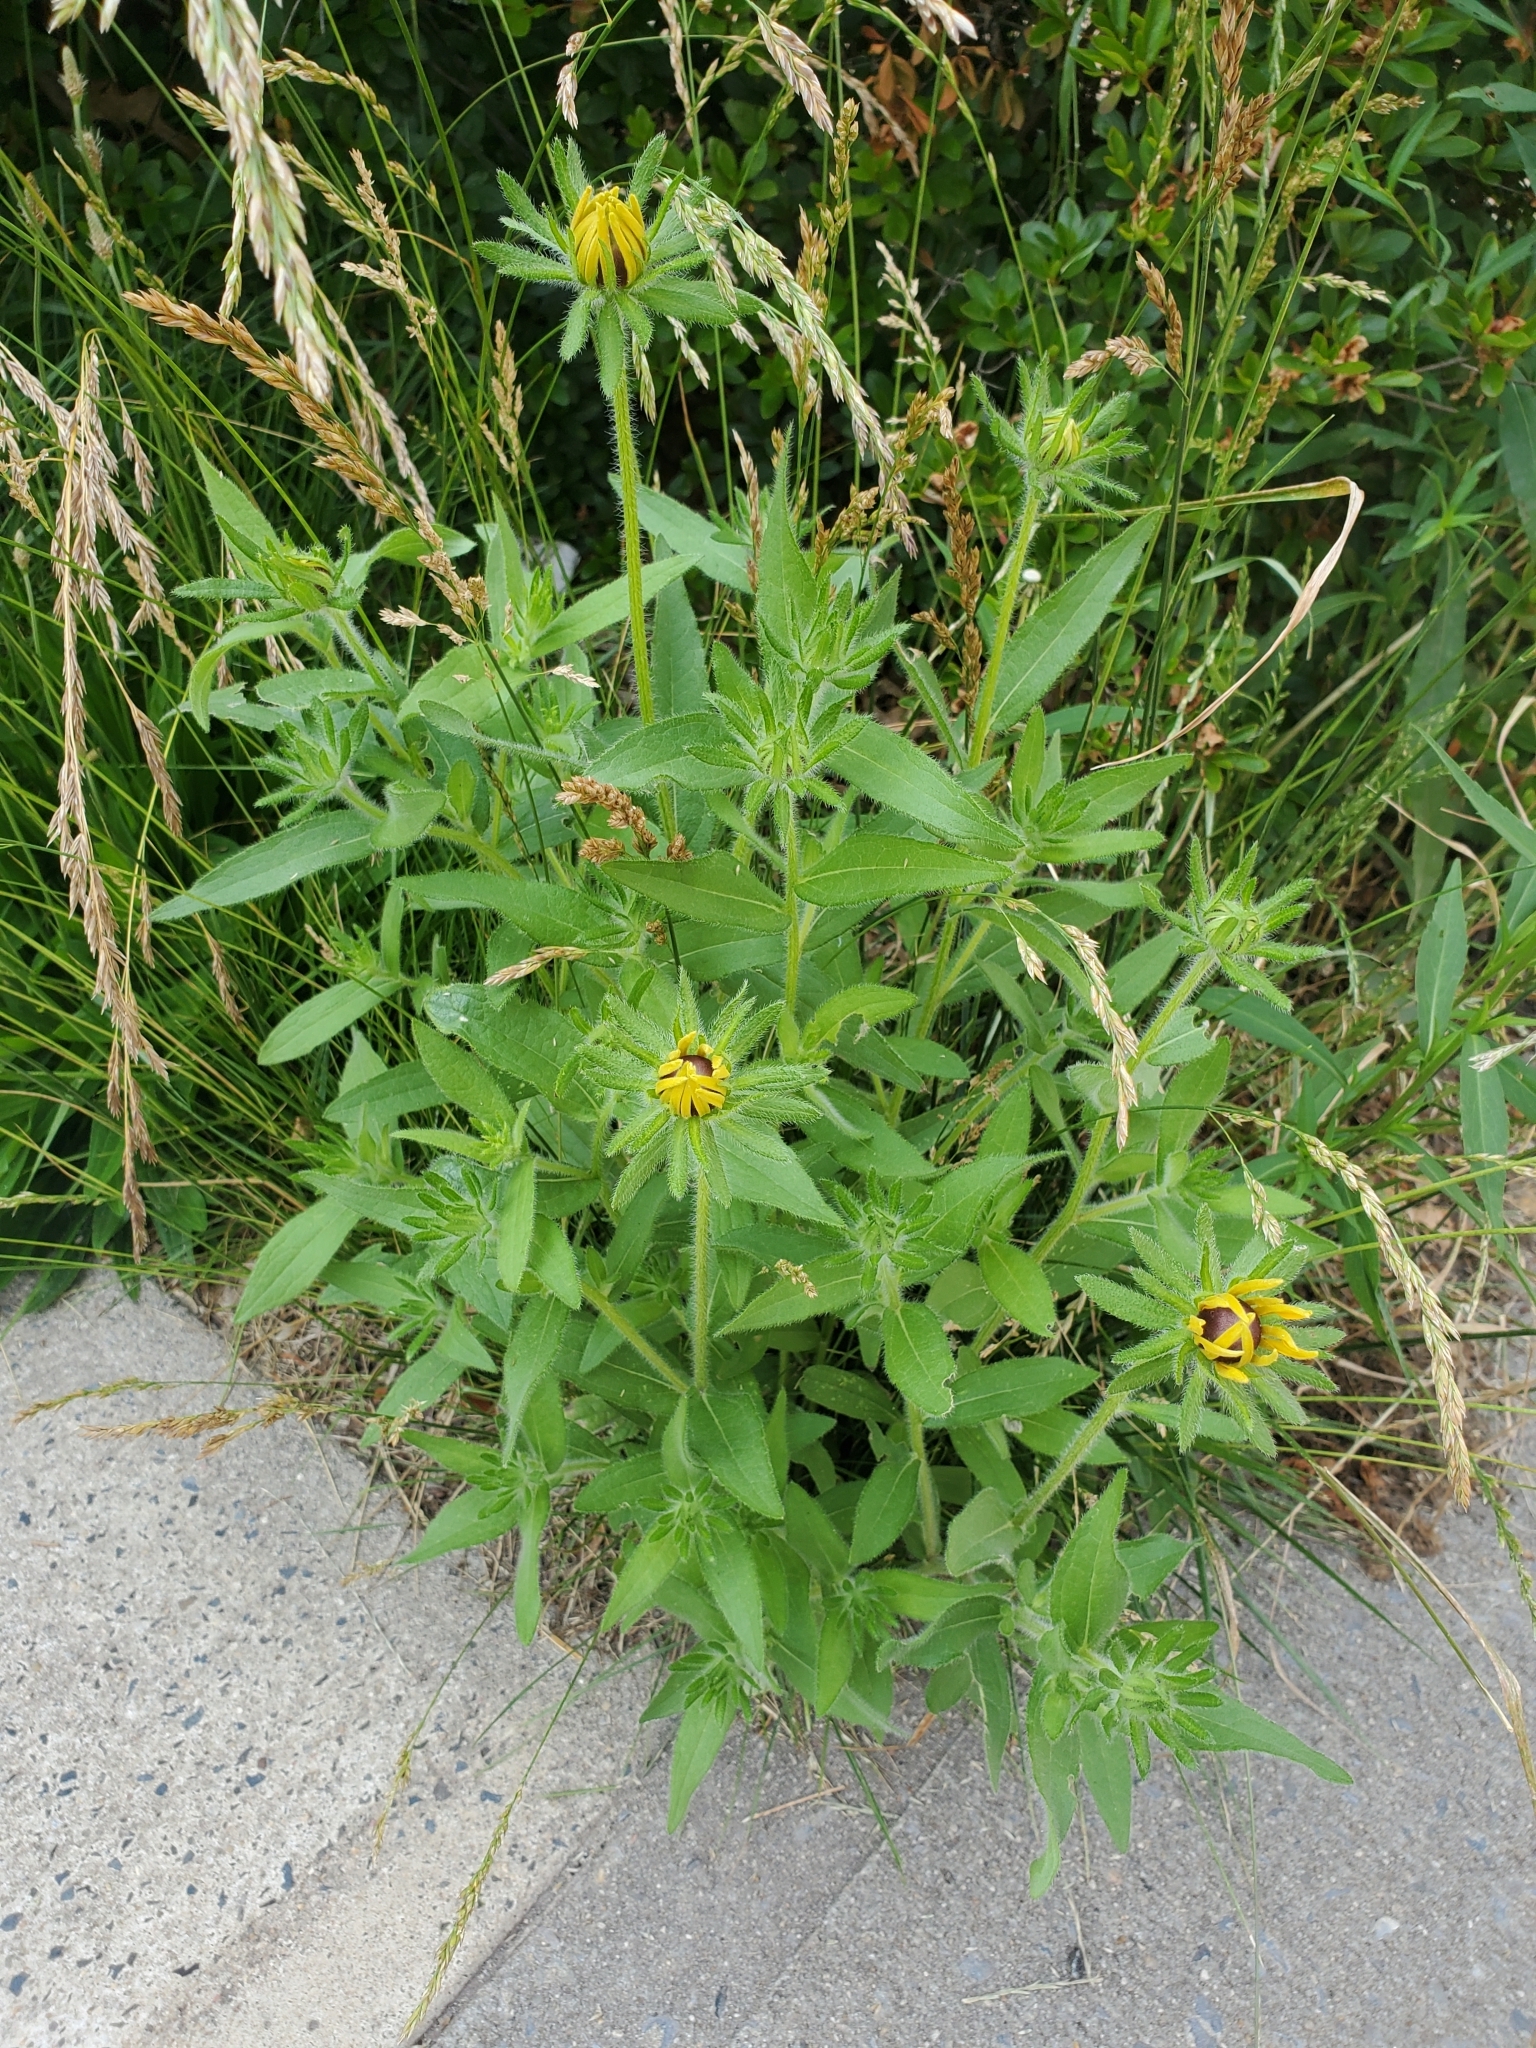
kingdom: Plantae
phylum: Tracheophyta
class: Magnoliopsida
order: Asterales
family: Asteraceae
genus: Rudbeckia
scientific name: Rudbeckia hirta
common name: Black-eyed-susan
